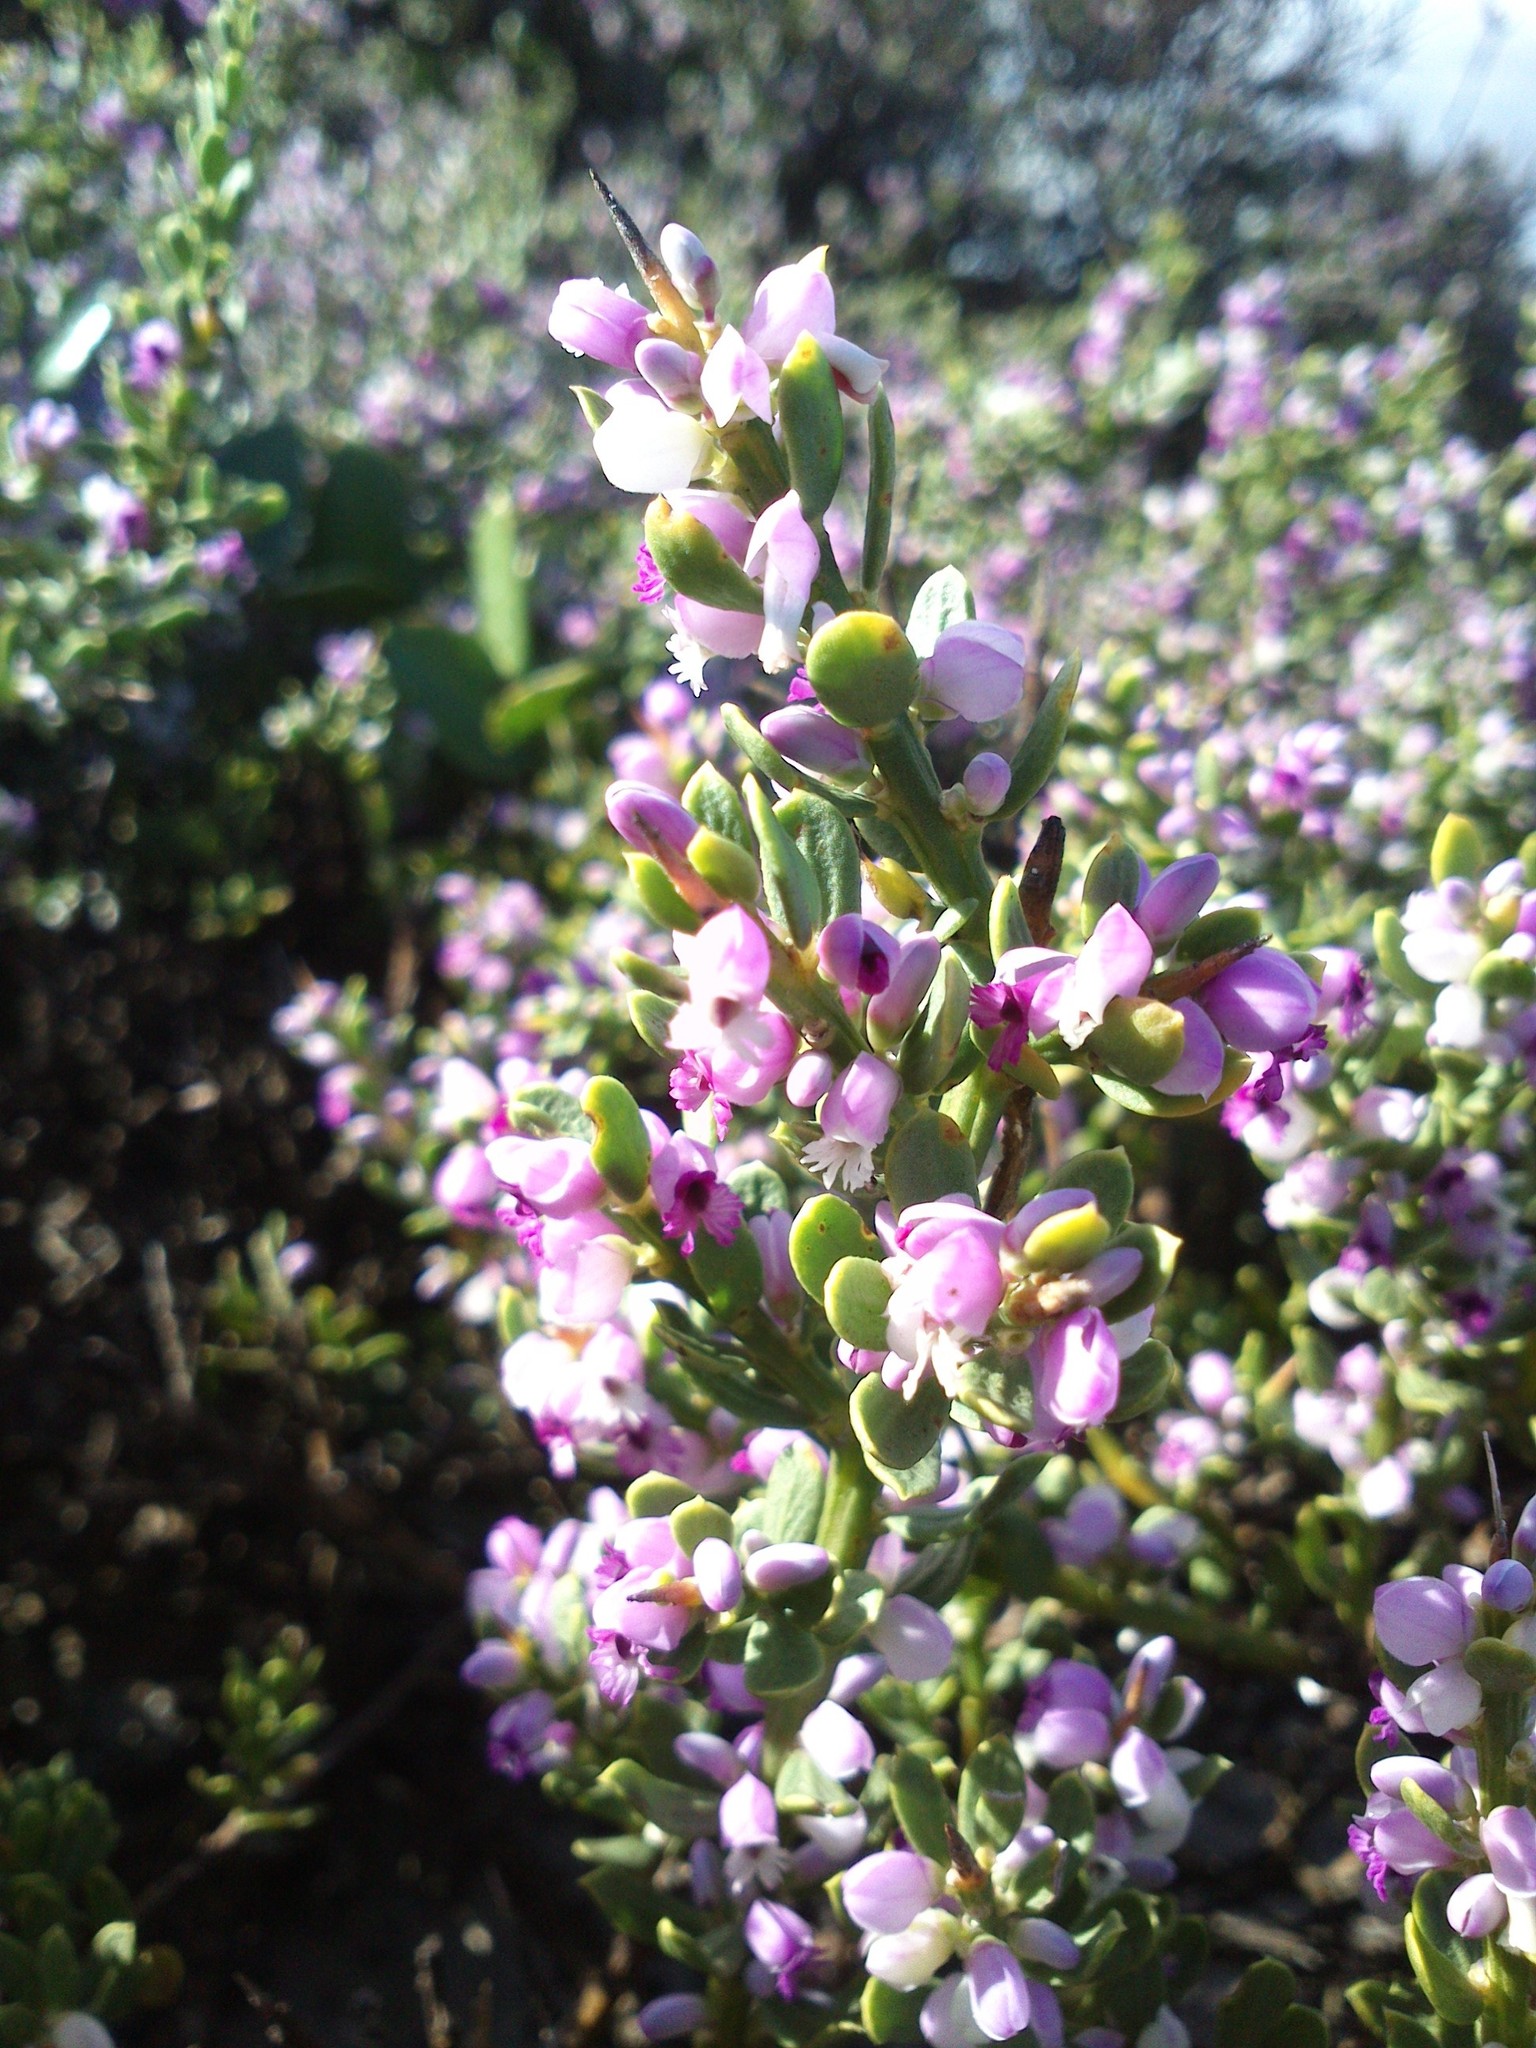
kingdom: Plantae
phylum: Tracheophyta
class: Magnoliopsida
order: Fabales
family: Polygalaceae
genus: Muraltia
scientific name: Muraltia spinosa
